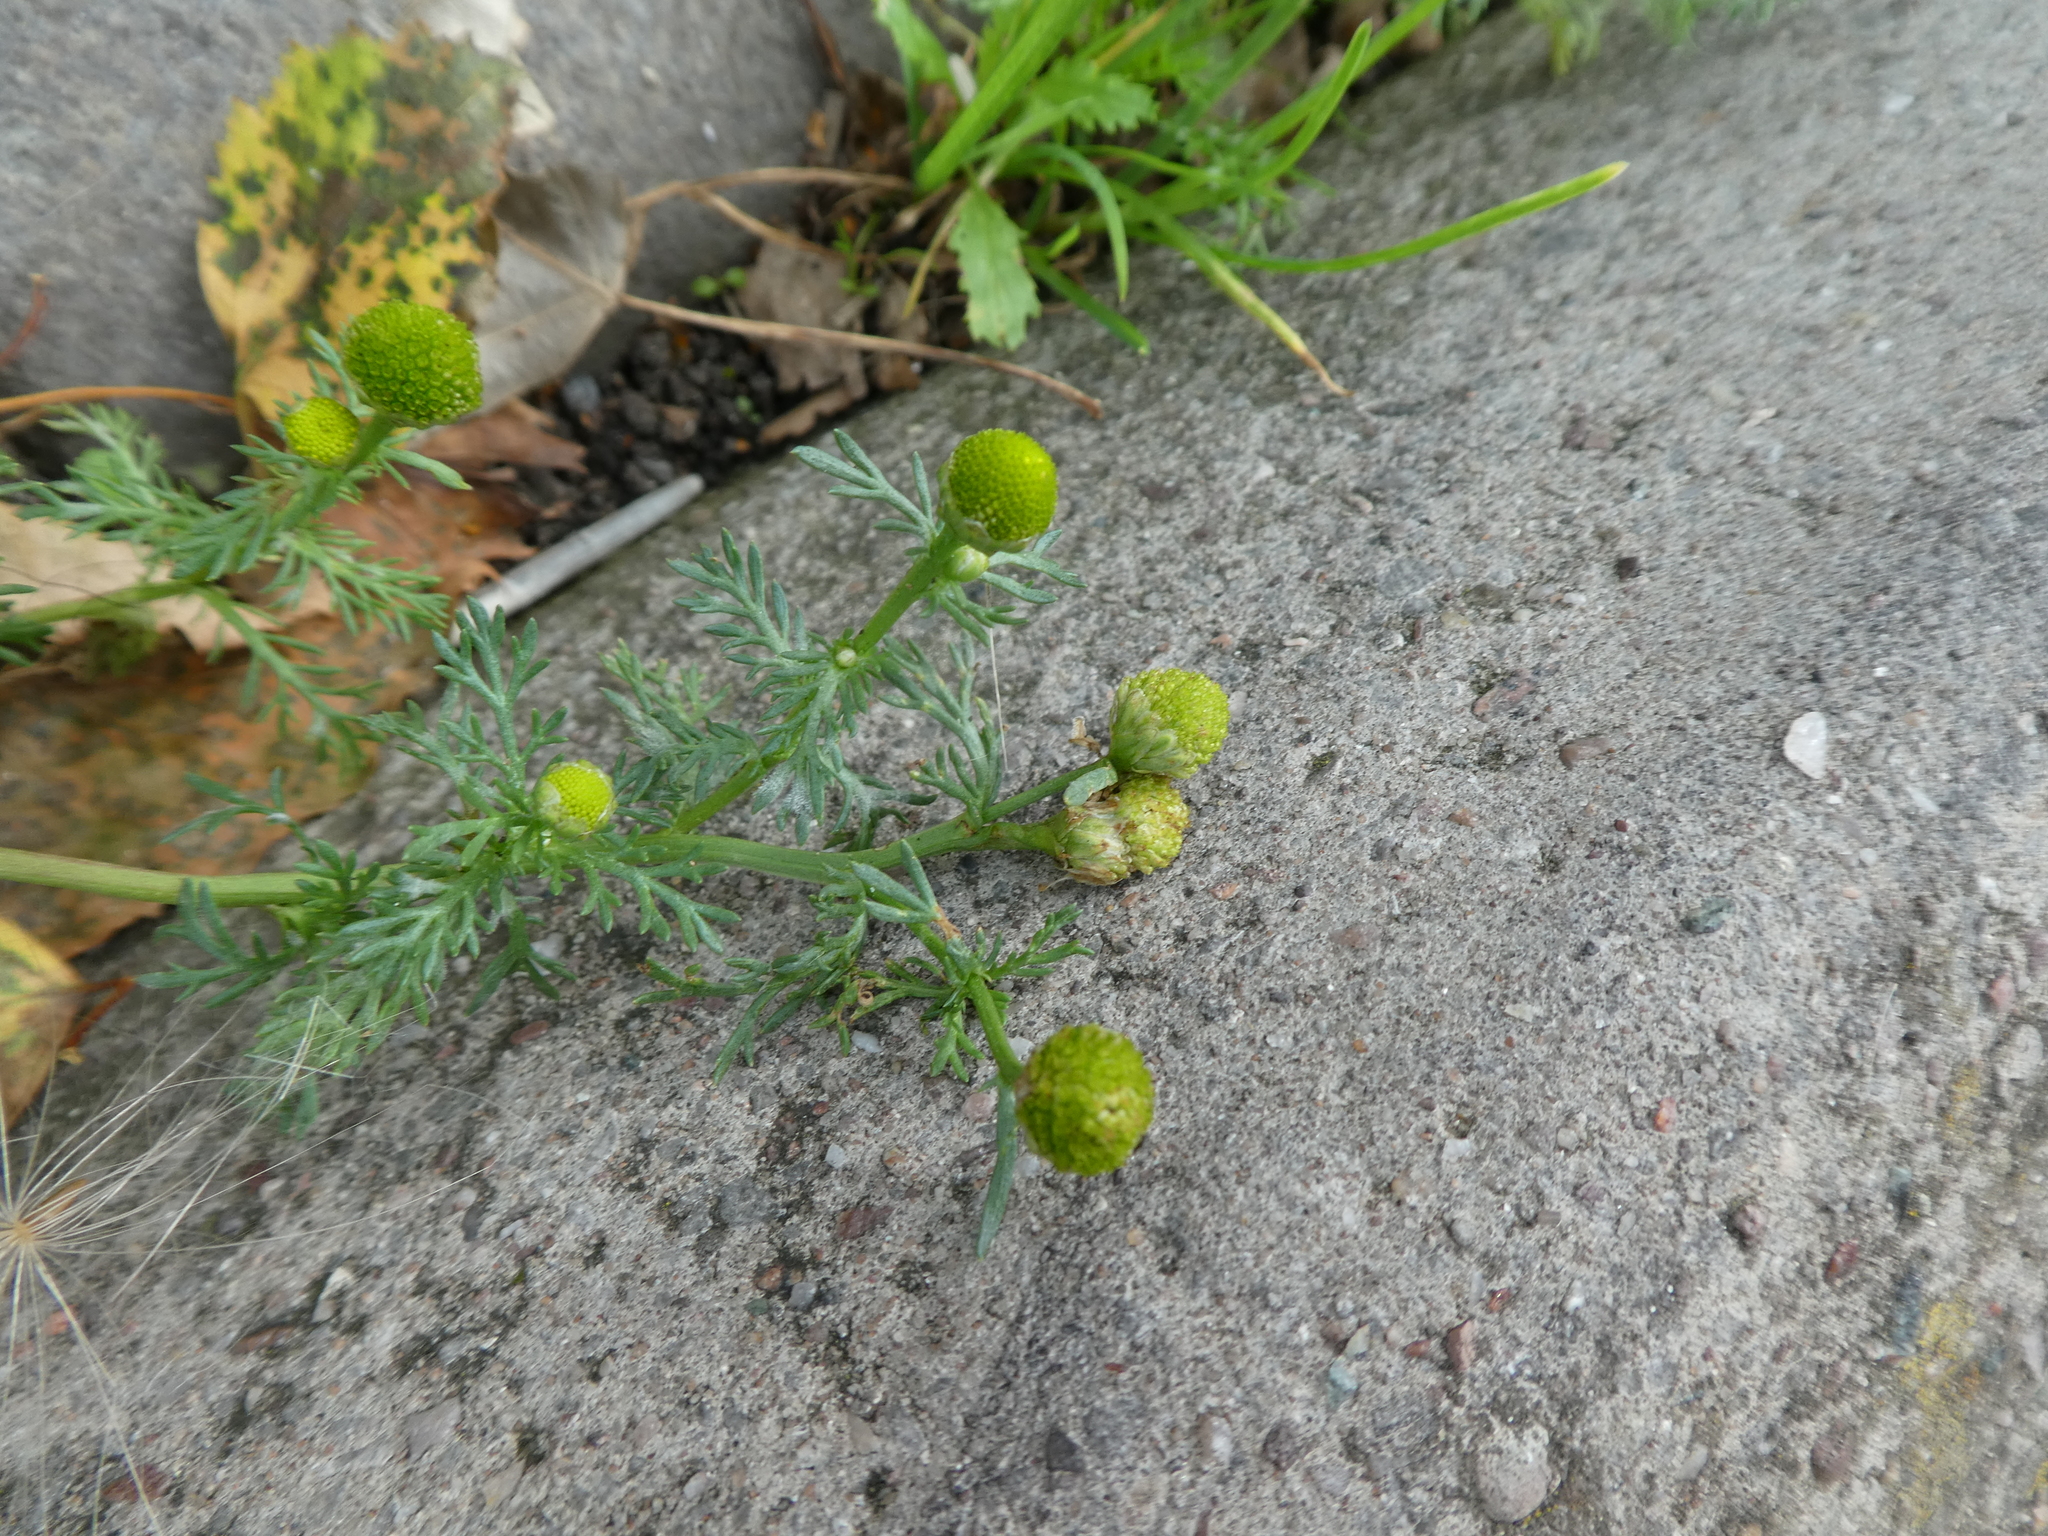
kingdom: Plantae
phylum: Tracheophyta
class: Magnoliopsida
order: Asterales
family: Asteraceae
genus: Matricaria
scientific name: Matricaria discoidea
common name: Disc mayweed
